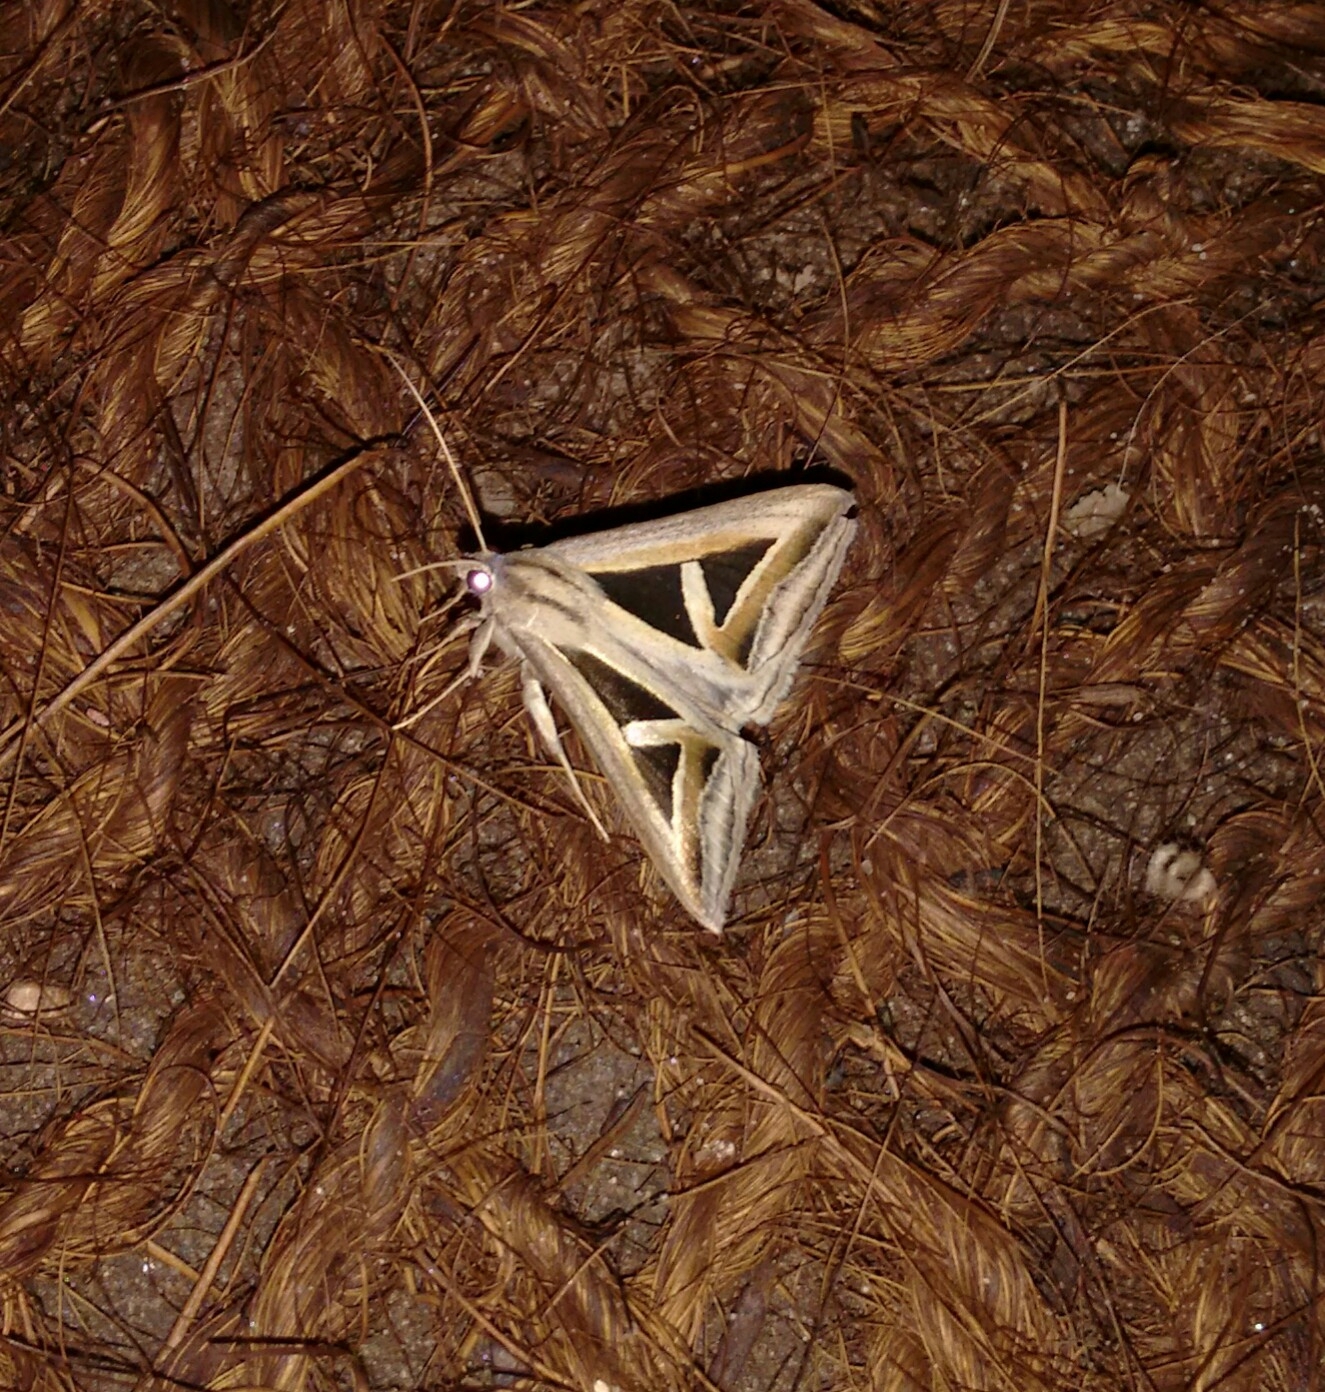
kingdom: Animalia
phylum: Arthropoda
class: Insecta
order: Lepidoptera
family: Erebidae
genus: Trigonodes
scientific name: Trigonodes hyppasia
